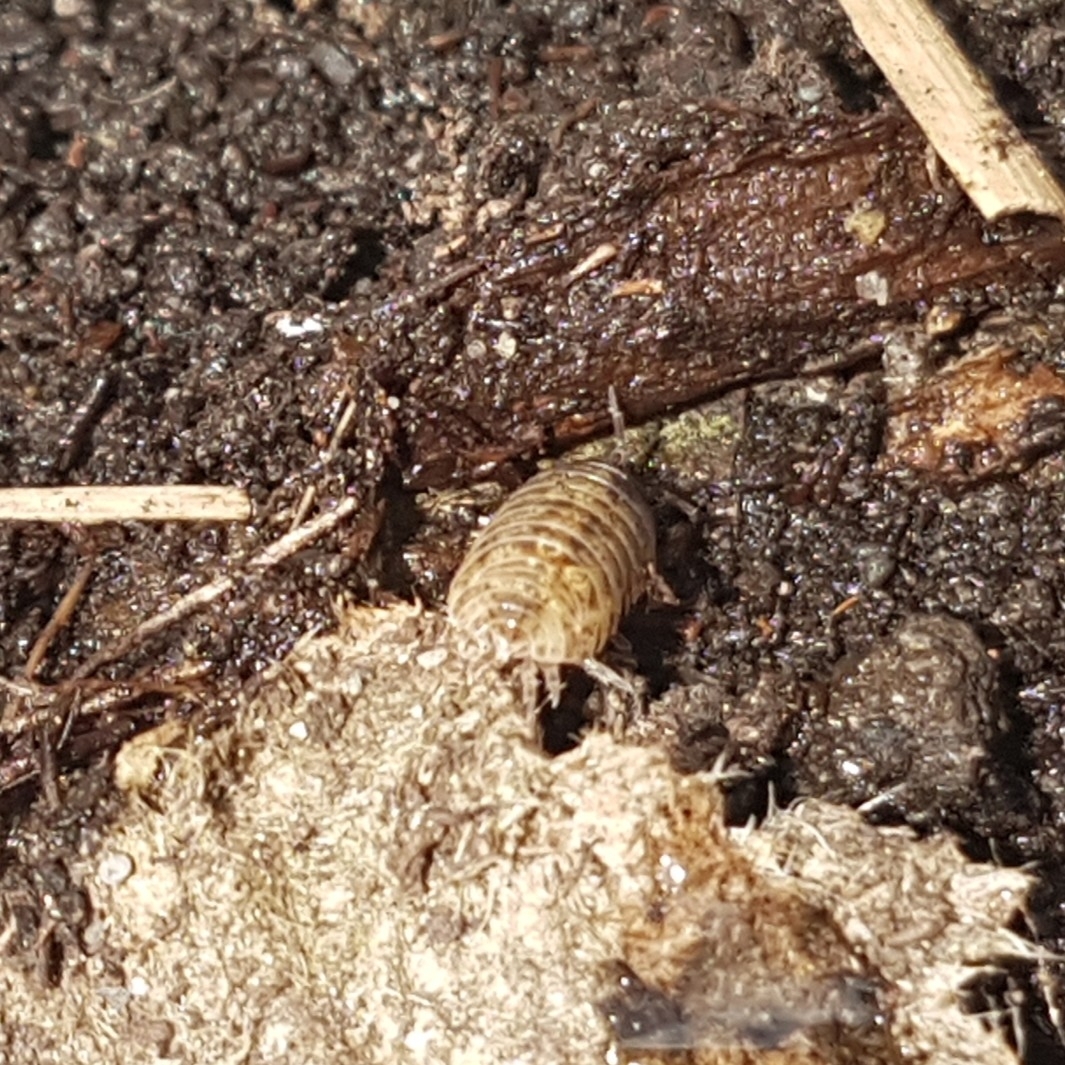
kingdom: Animalia
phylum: Arthropoda
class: Malacostraca
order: Isopoda
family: Armadillidiidae
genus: Armadillidium
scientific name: Armadillidium vulgare
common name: Common pill woodlouse
